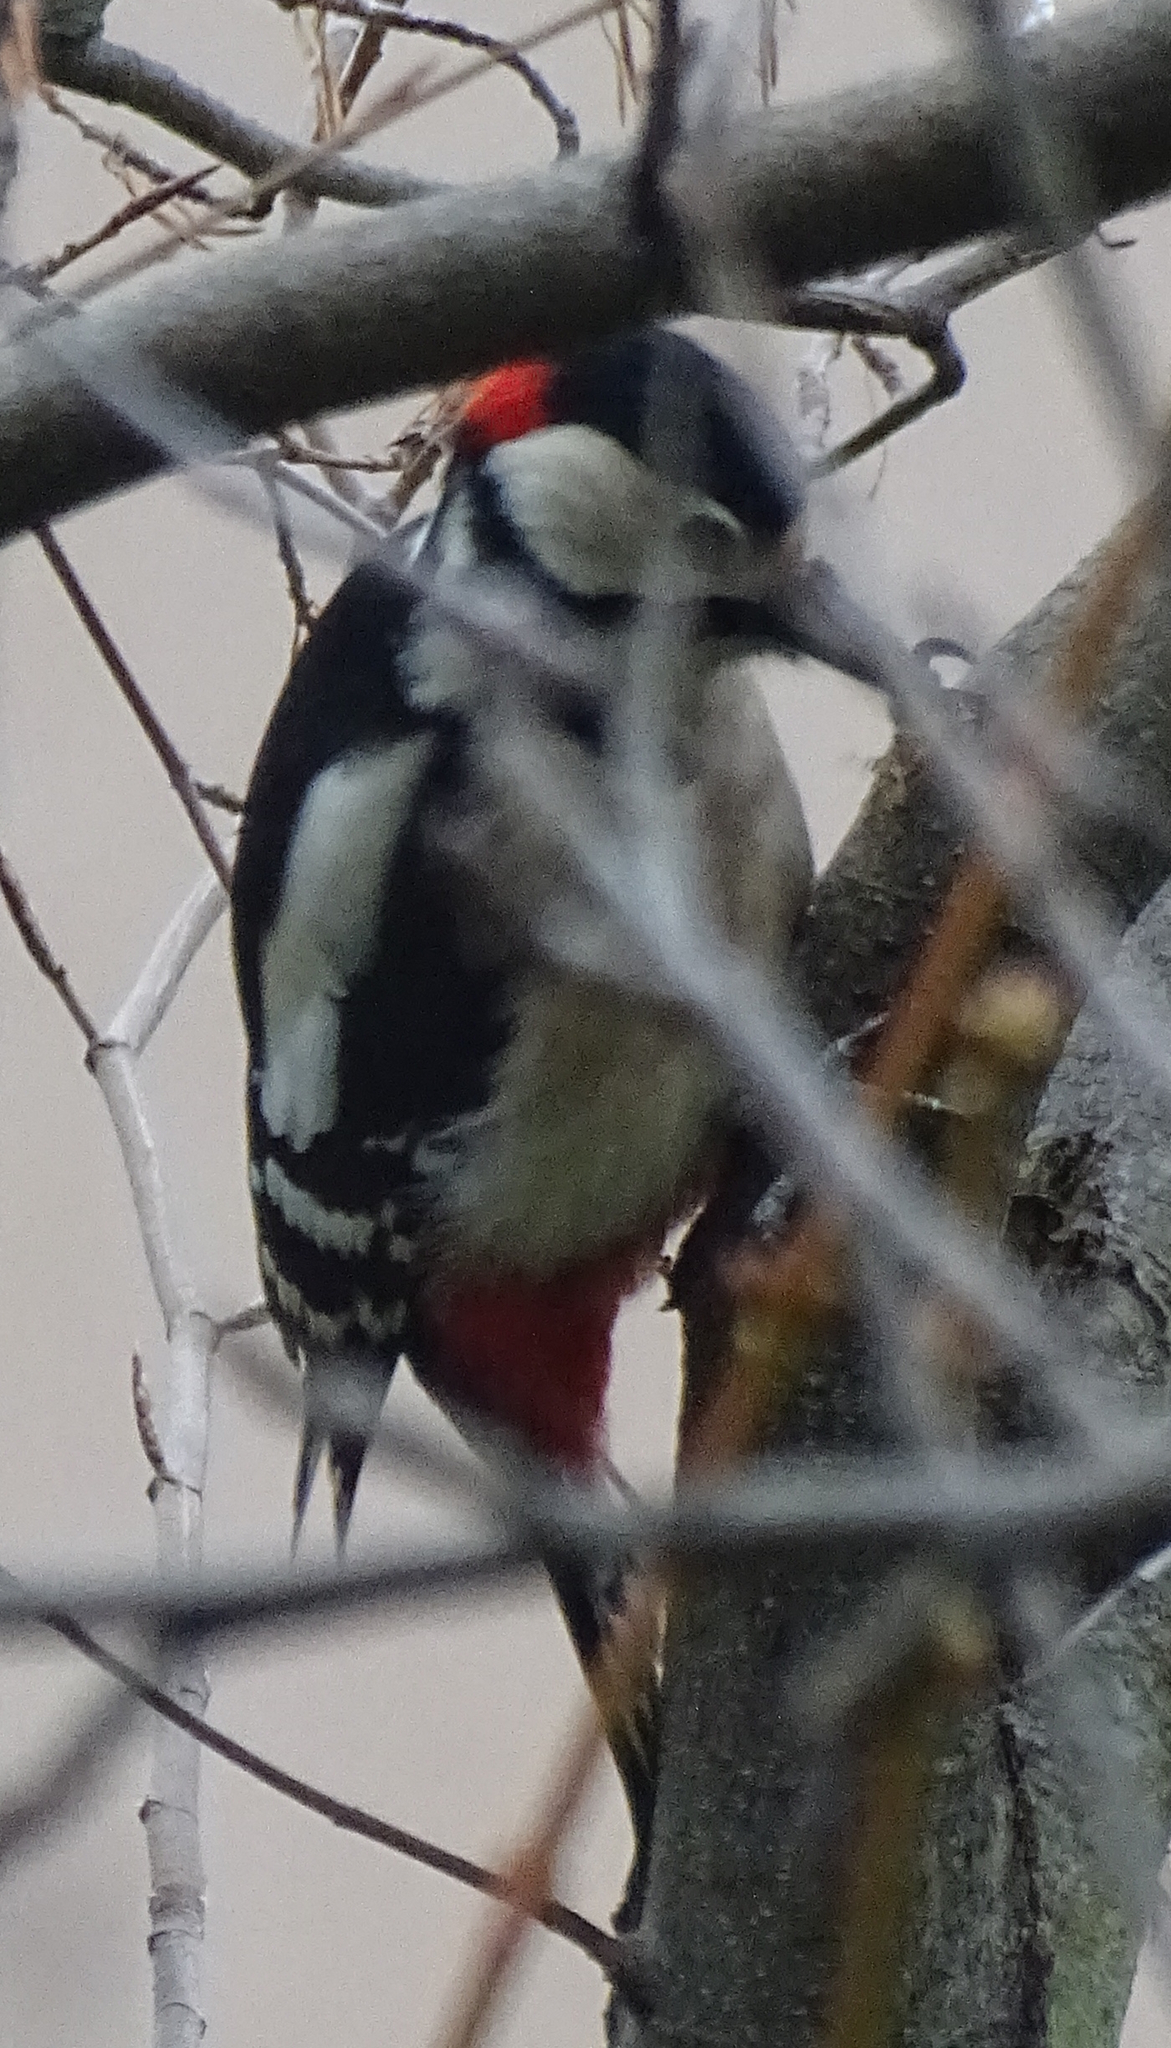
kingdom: Animalia
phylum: Chordata
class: Aves
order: Piciformes
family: Picidae
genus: Dendrocopos
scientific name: Dendrocopos major
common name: Great spotted woodpecker
